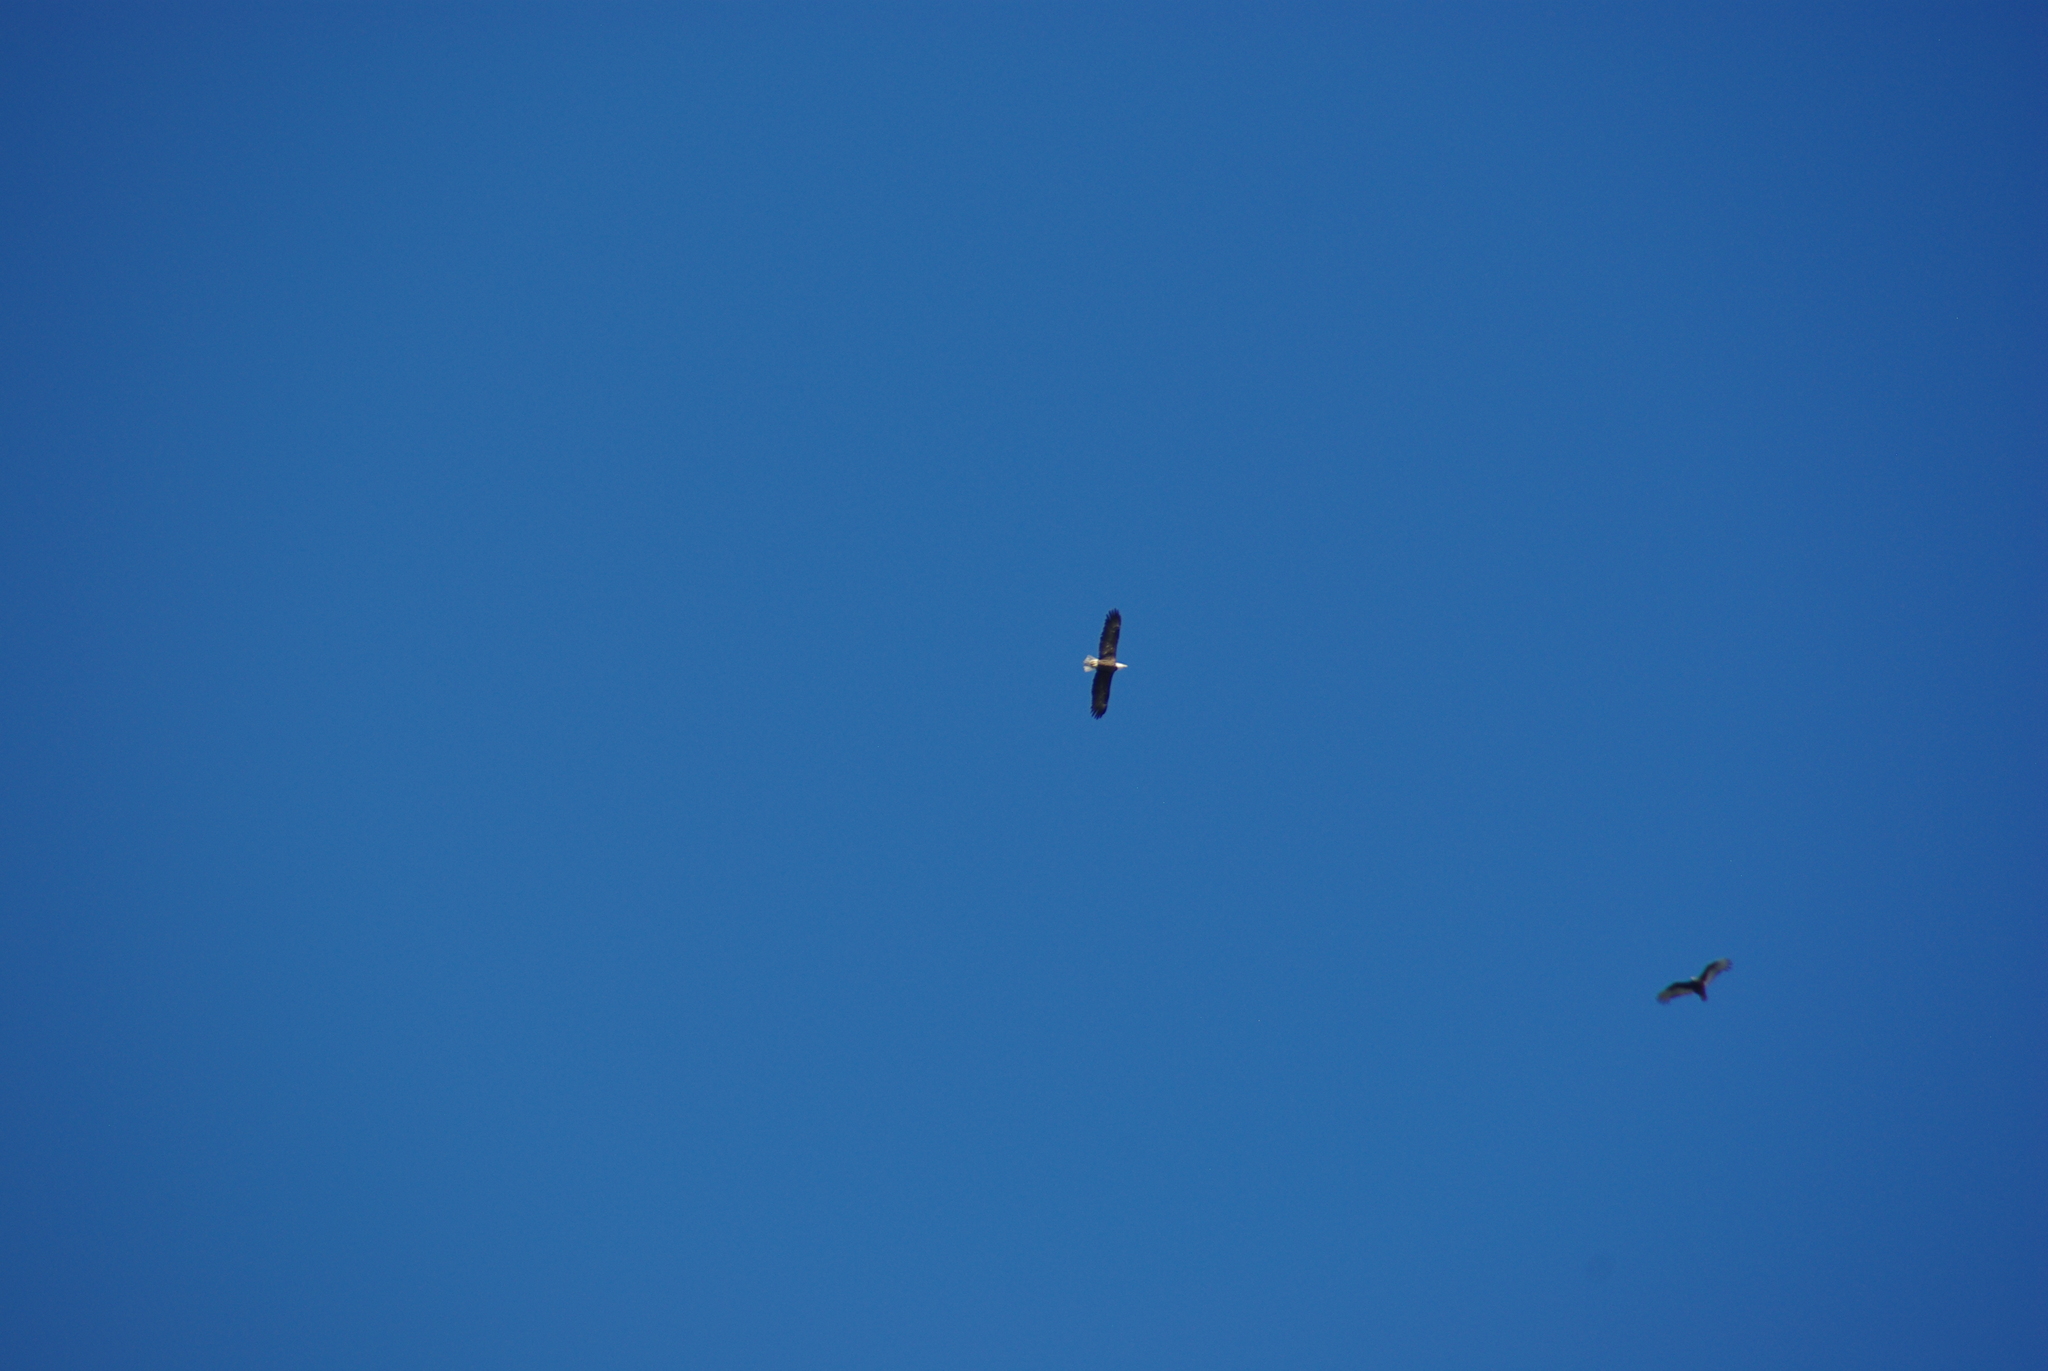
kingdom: Animalia
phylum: Chordata
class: Aves
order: Accipitriformes
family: Accipitridae
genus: Haliaeetus
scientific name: Haliaeetus leucocephalus
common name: Bald eagle
